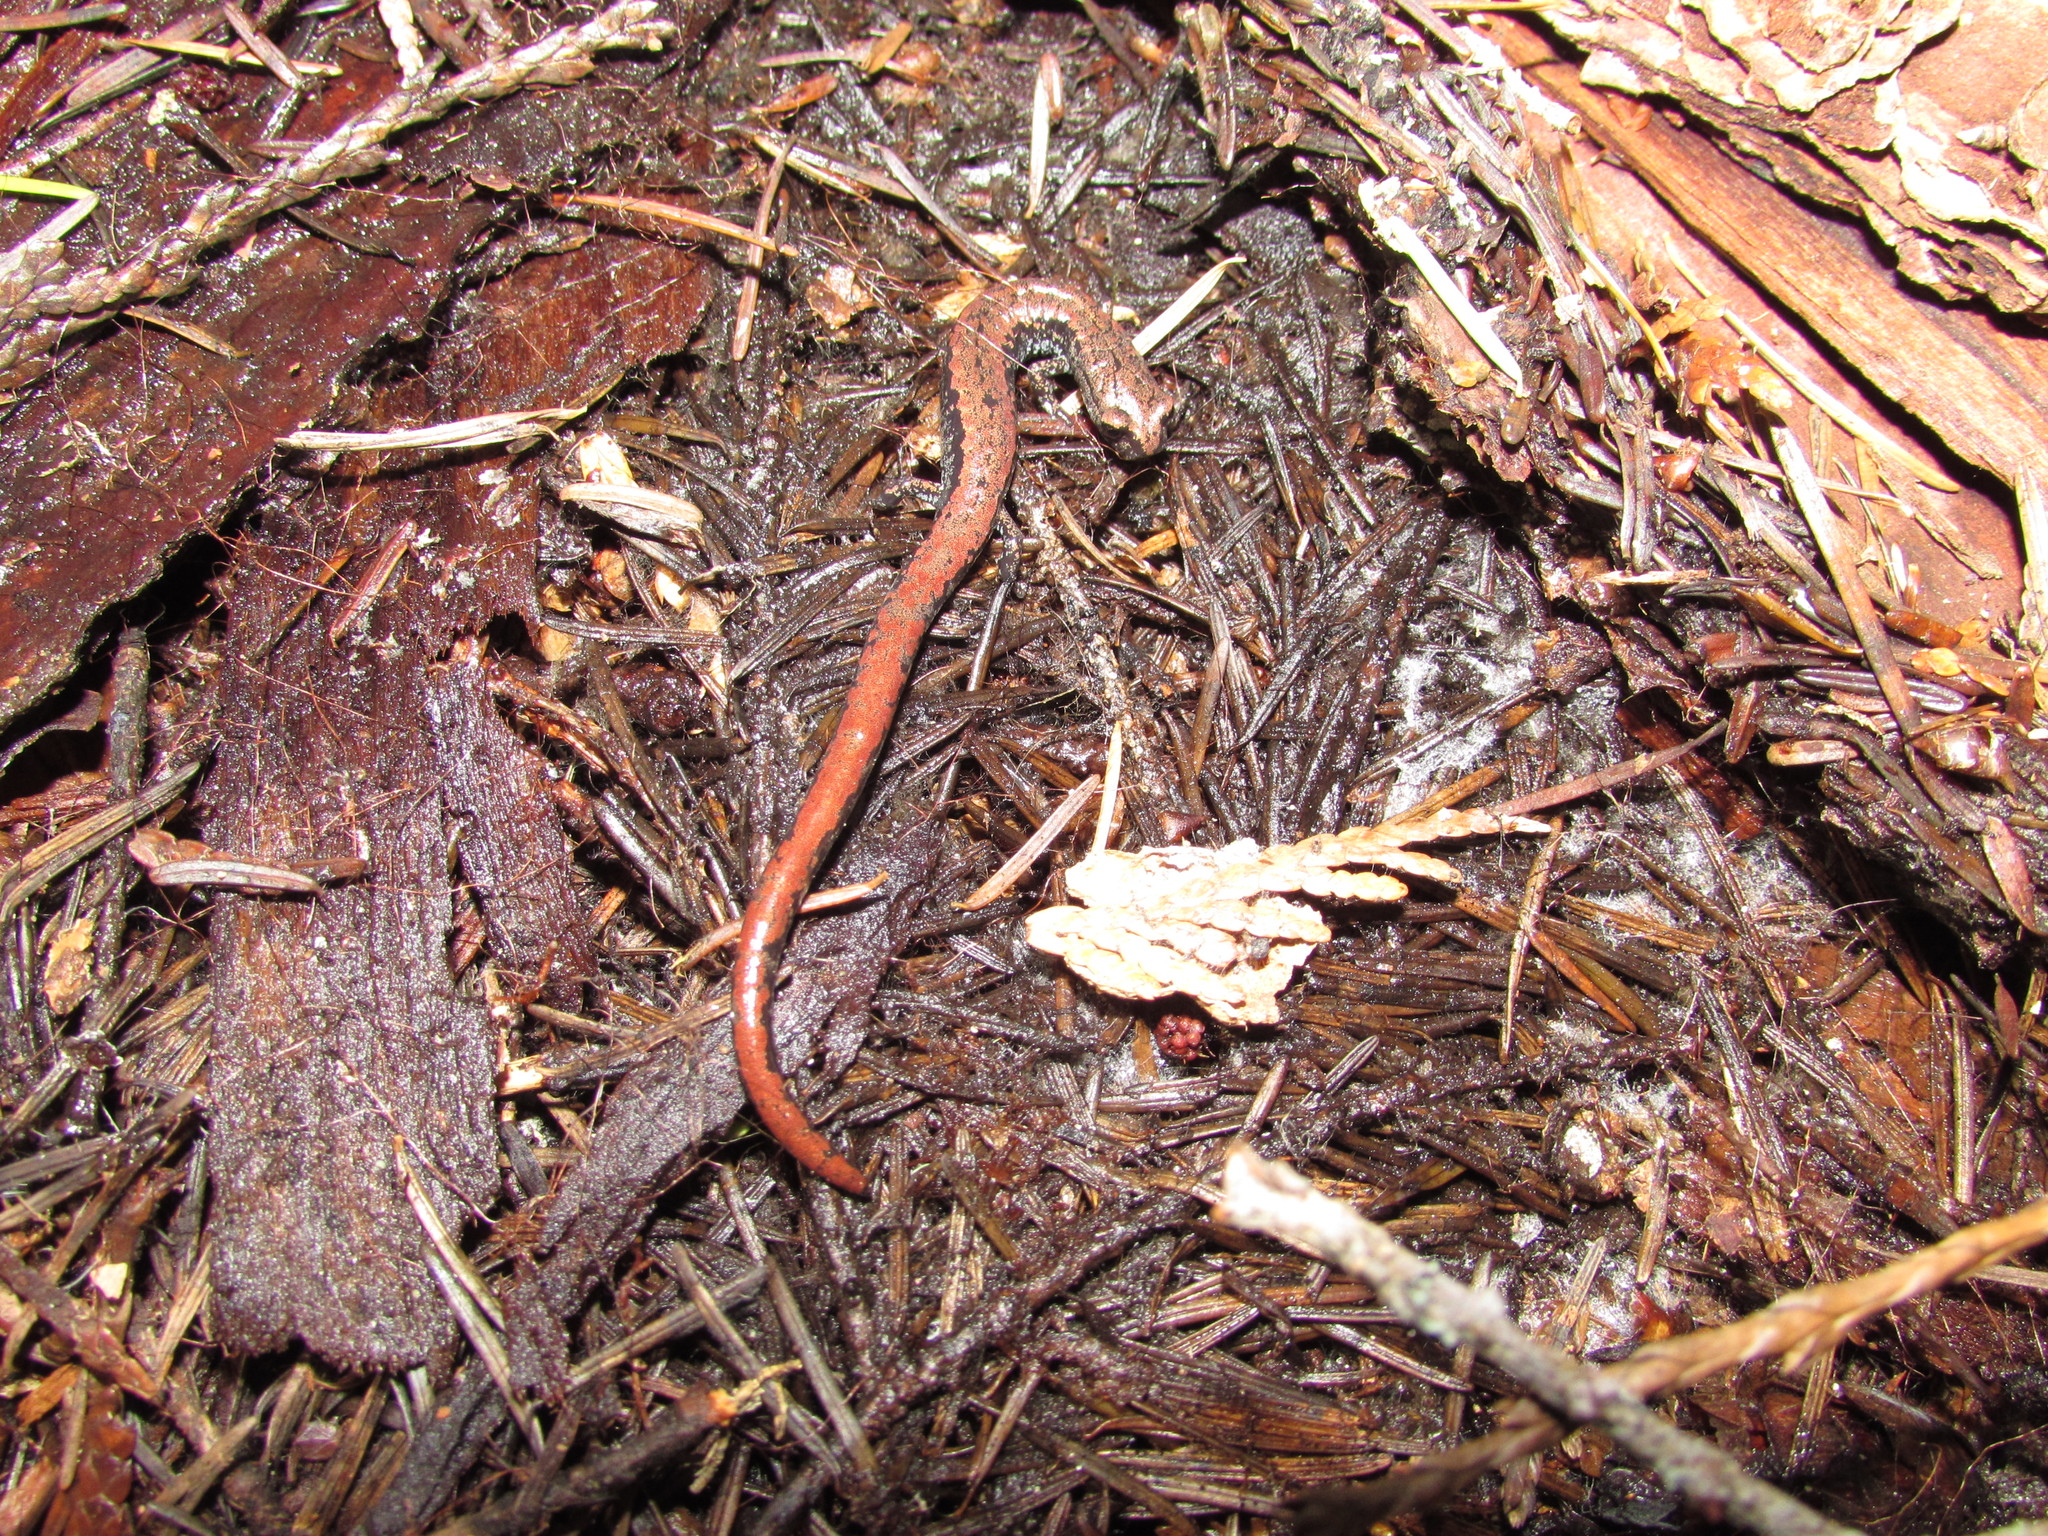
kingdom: Animalia
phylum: Chordata
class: Amphibia
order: Caudata
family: Plethodontidae
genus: Batrachoseps
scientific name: Batrachoseps wrighti
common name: Oregon slender salamander
